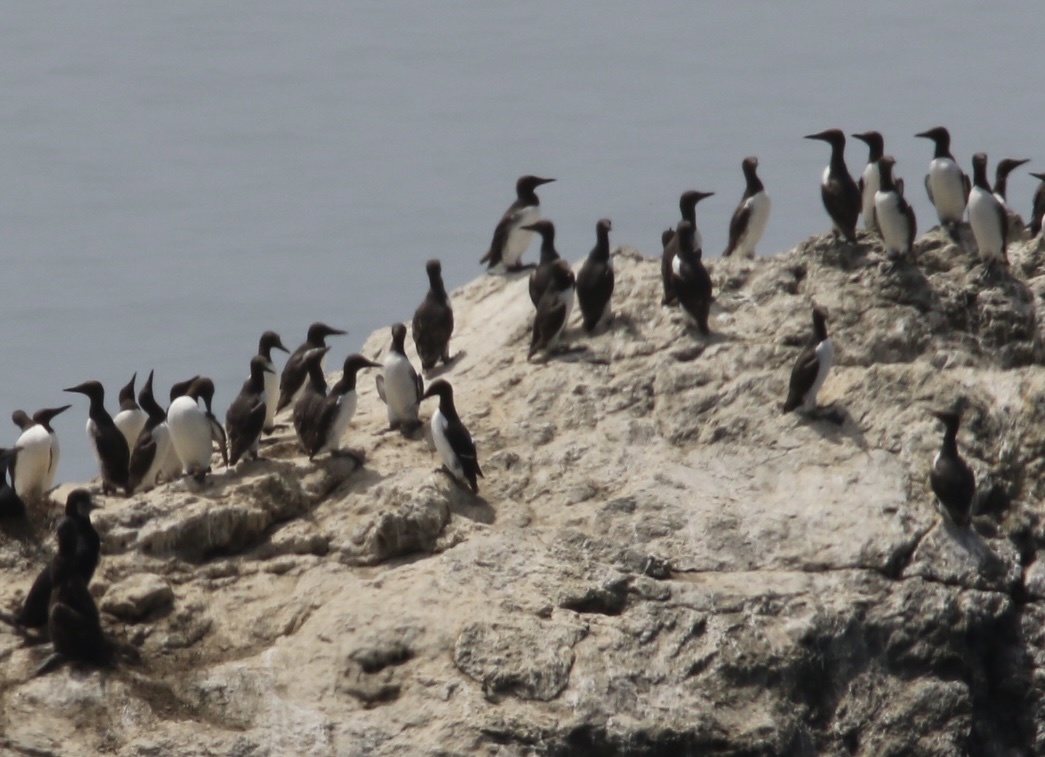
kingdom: Animalia
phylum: Chordata
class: Aves
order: Charadriiformes
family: Alcidae
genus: Uria
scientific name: Uria aalge
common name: Common murre
